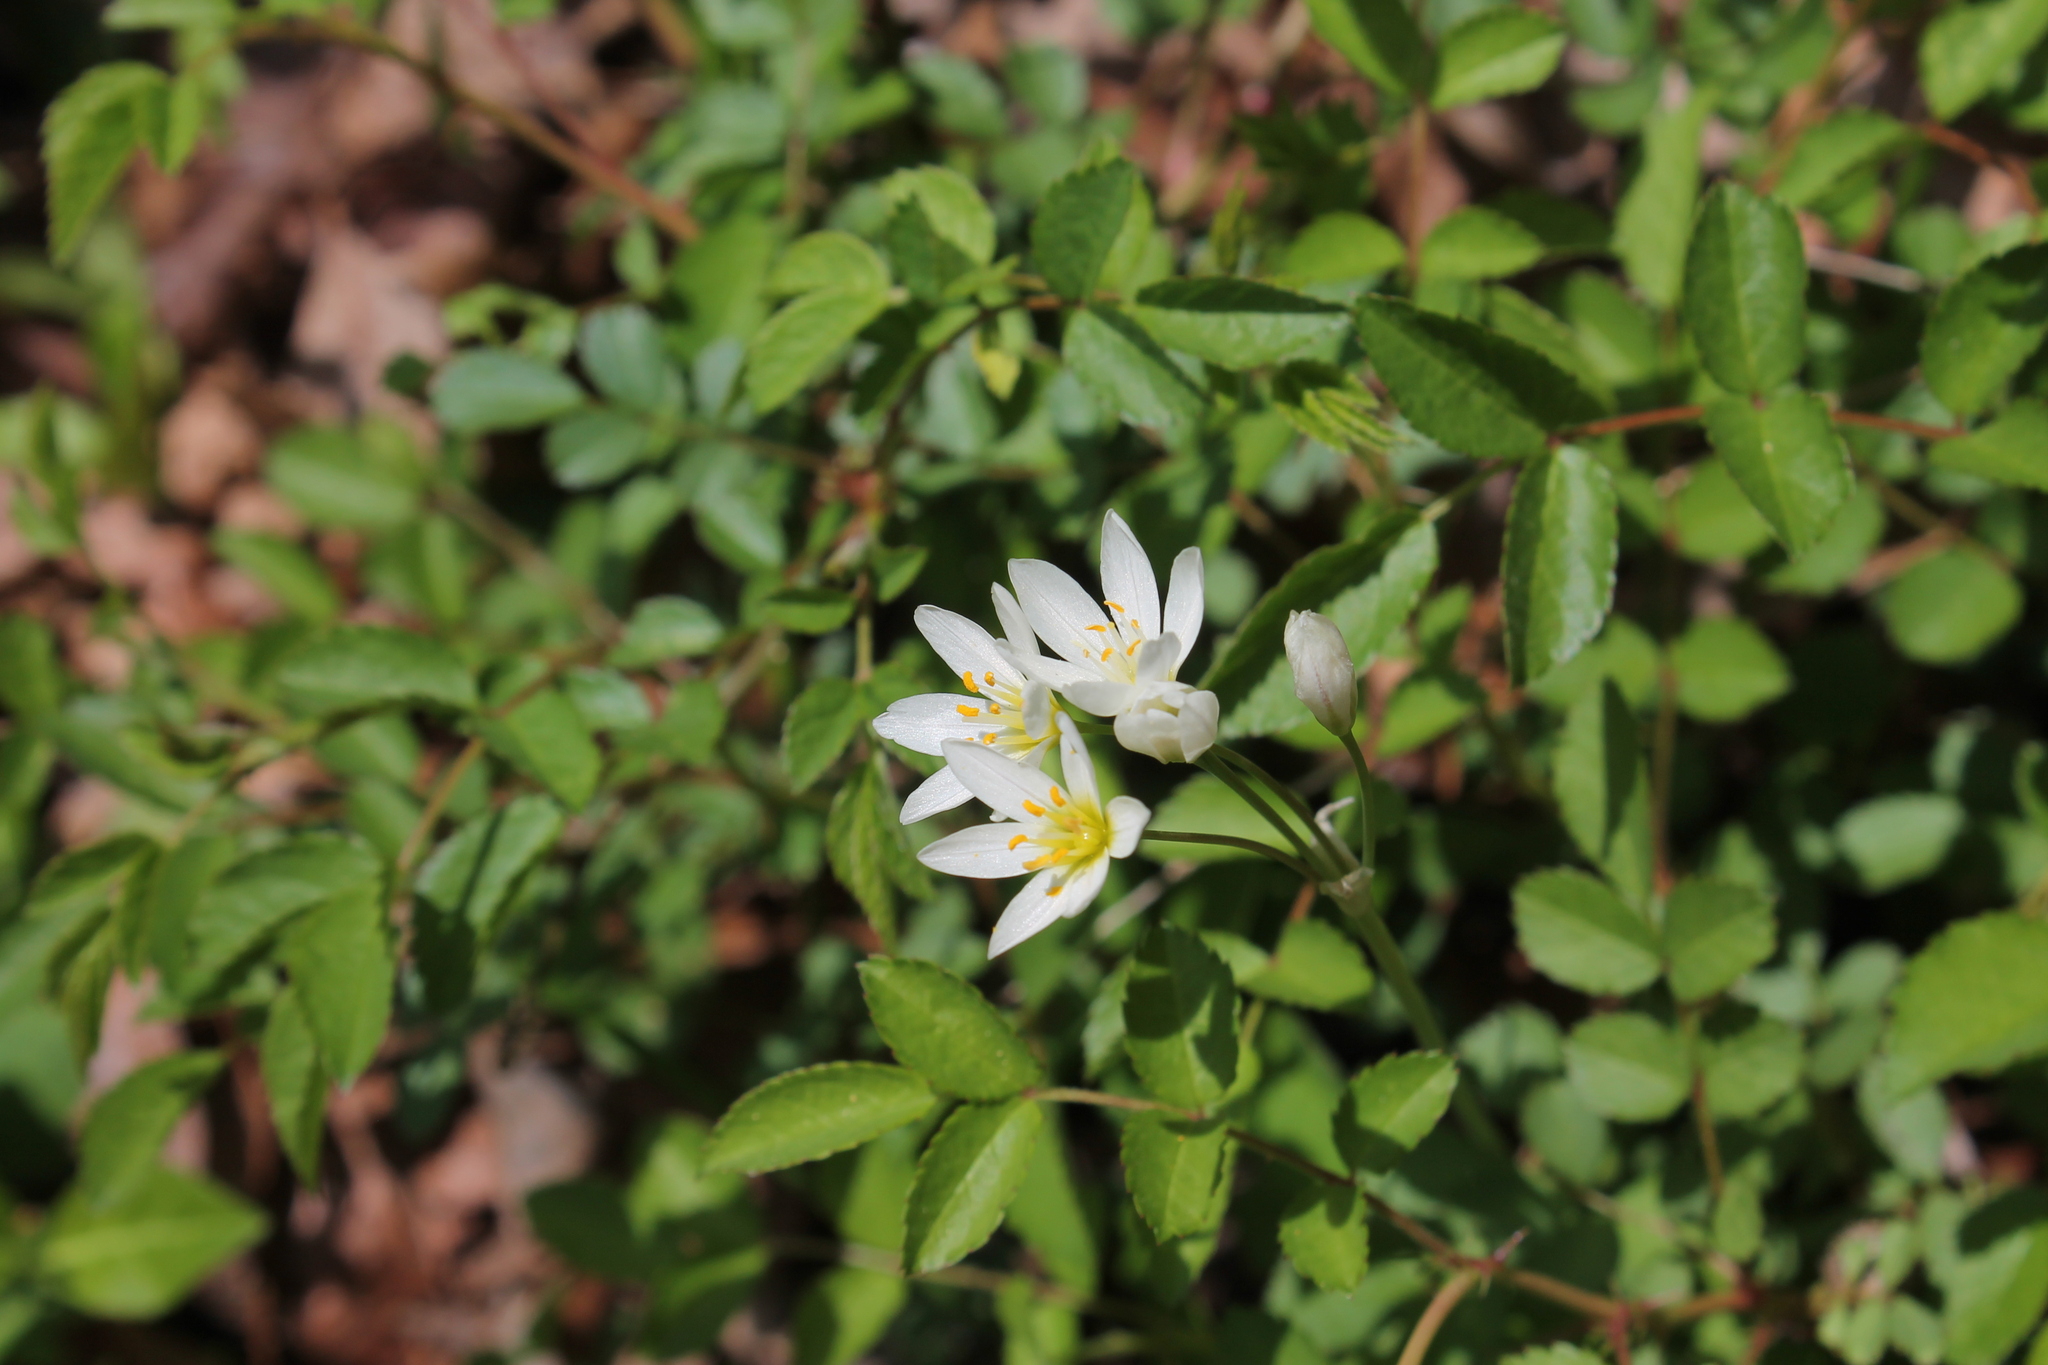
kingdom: Plantae
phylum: Tracheophyta
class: Liliopsida
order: Asparagales
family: Amaryllidaceae
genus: Nothoscordum
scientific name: Nothoscordum bivalve
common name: Crow-poison
